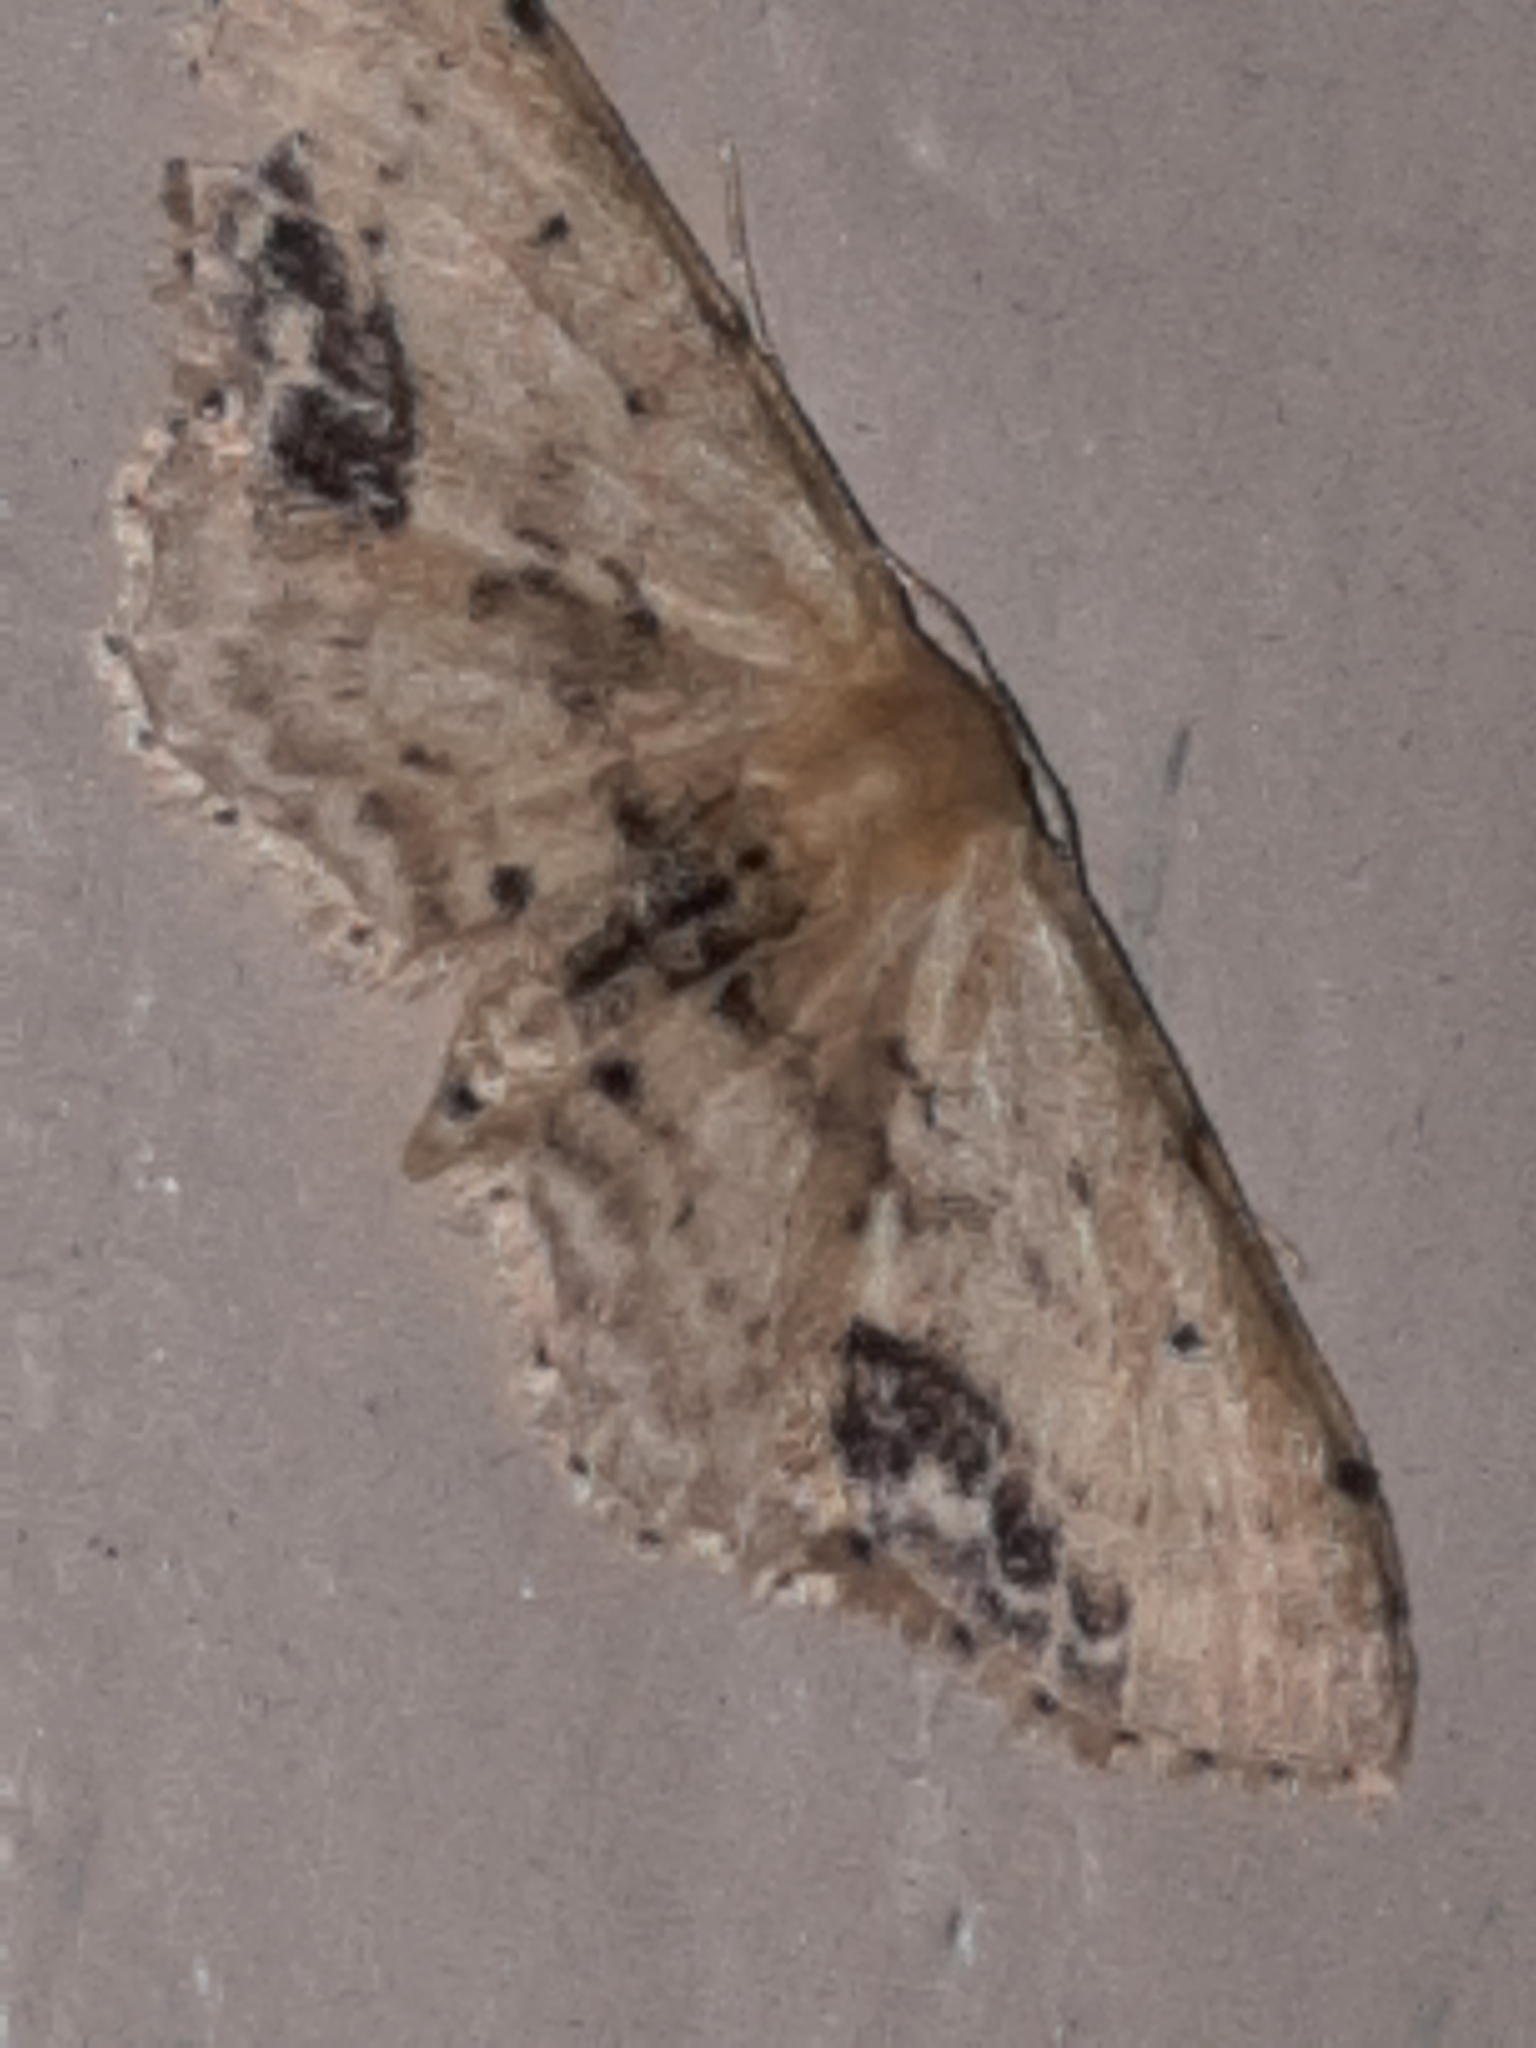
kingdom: Animalia
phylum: Arthropoda
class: Insecta
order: Lepidoptera
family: Geometridae
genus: Idaea
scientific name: Idaea dimidiata
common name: Single-dotted wave
